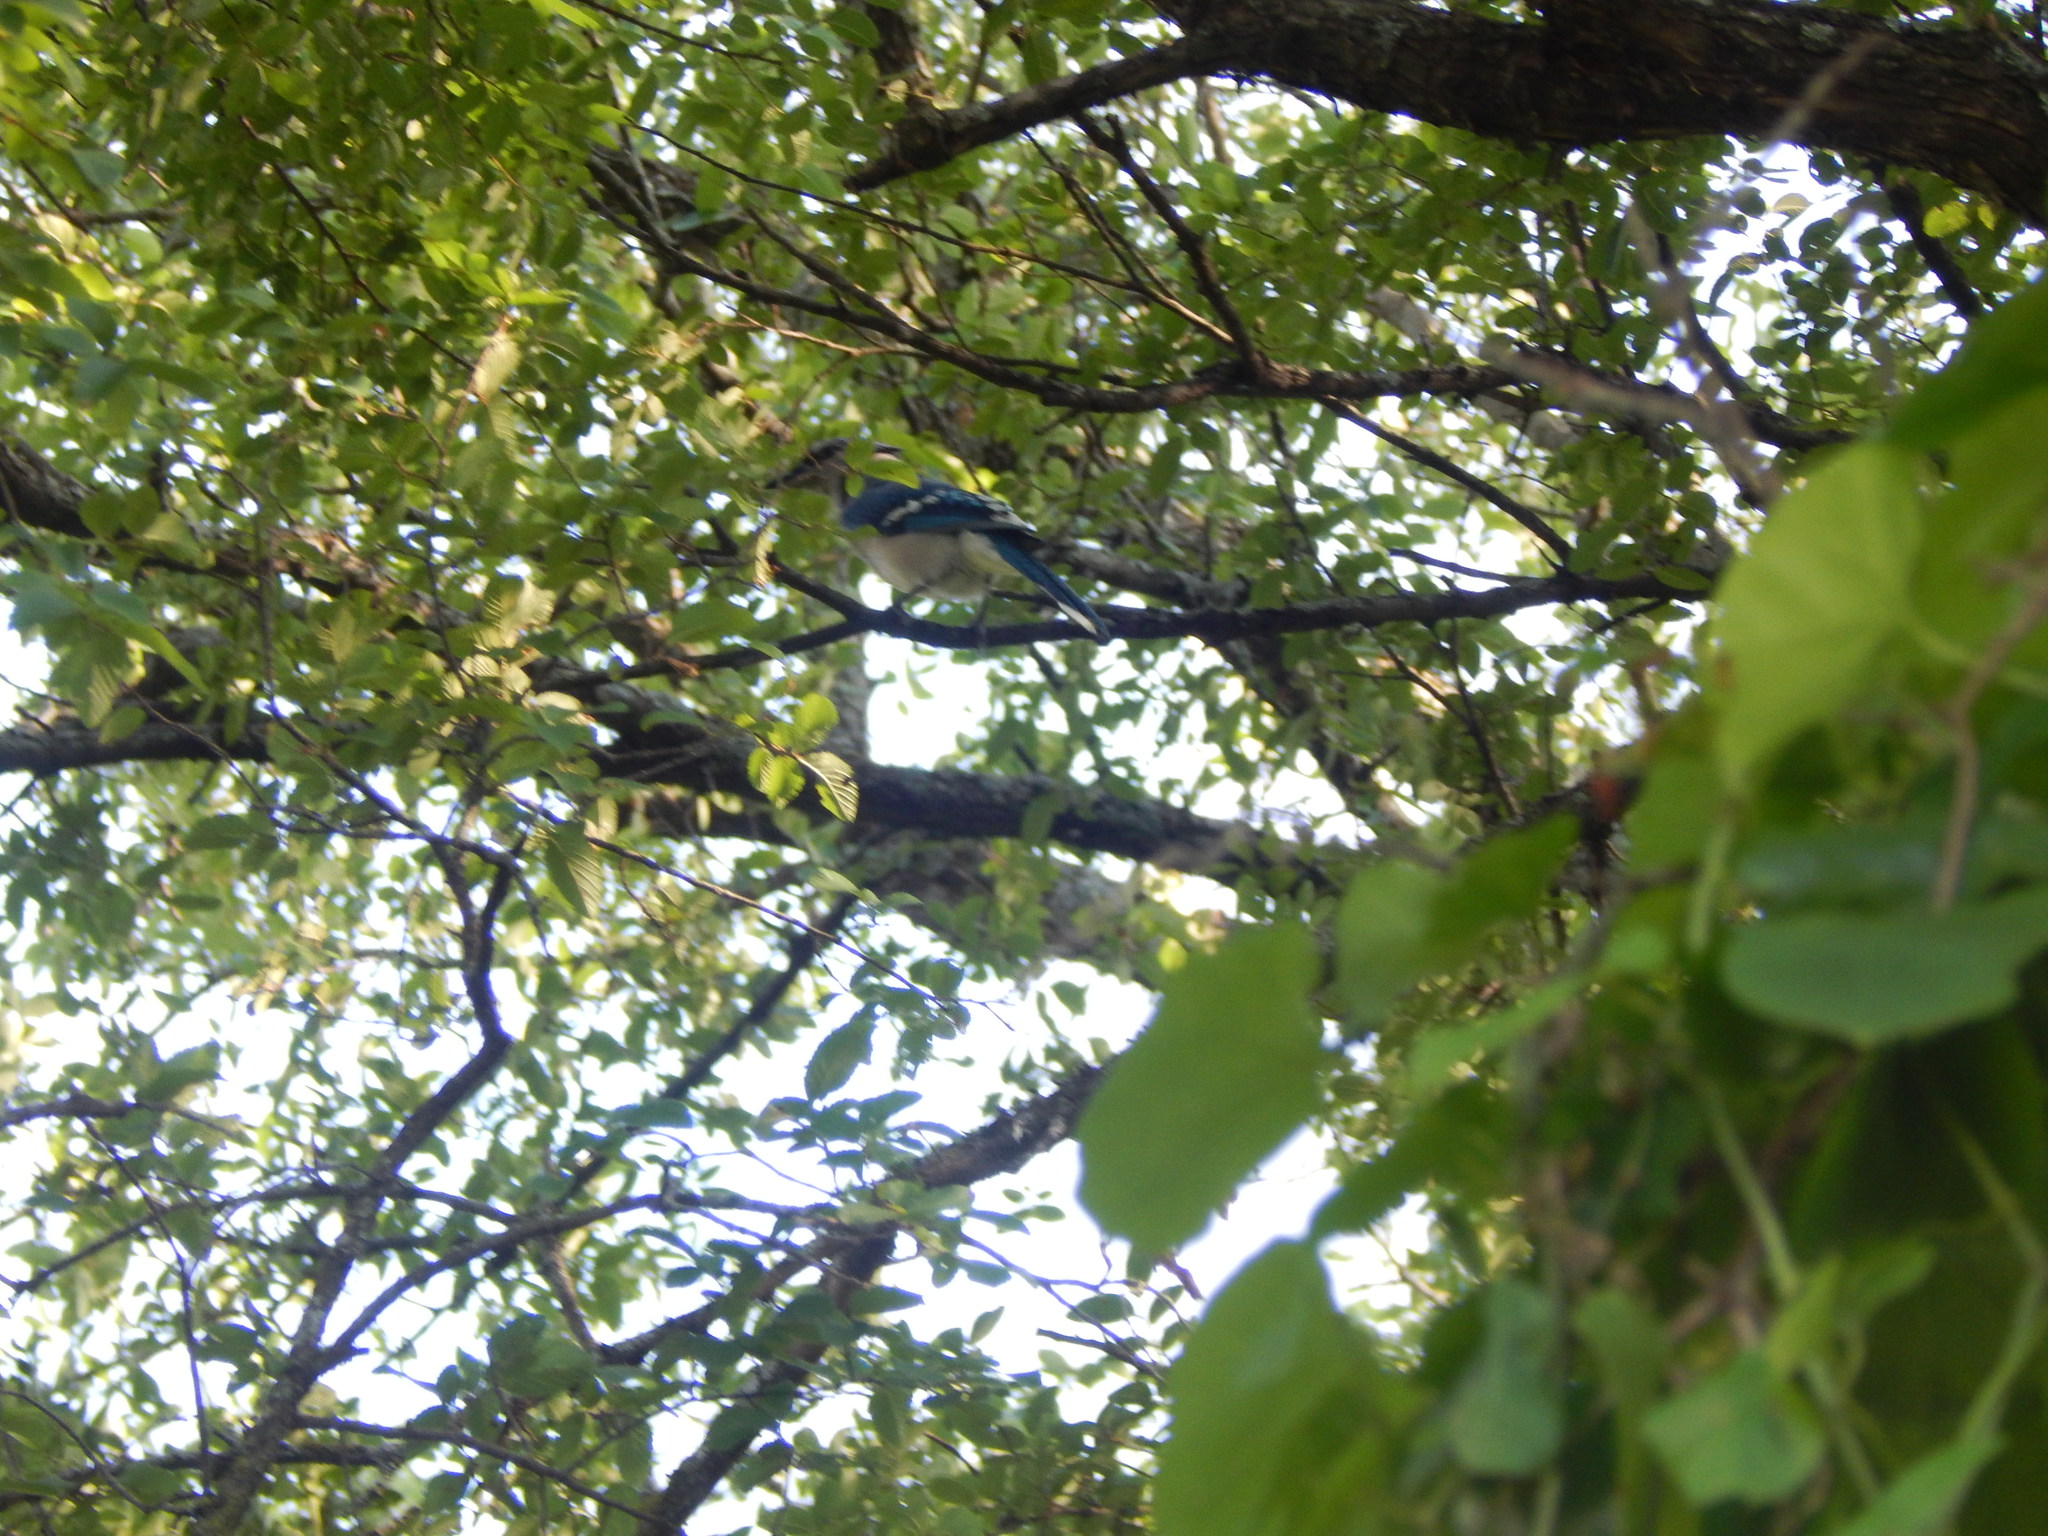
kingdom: Animalia
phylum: Chordata
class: Aves
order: Passeriformes
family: Corvidae
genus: Cyanocitta
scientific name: Cyanocitta cristata
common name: Blue jay
